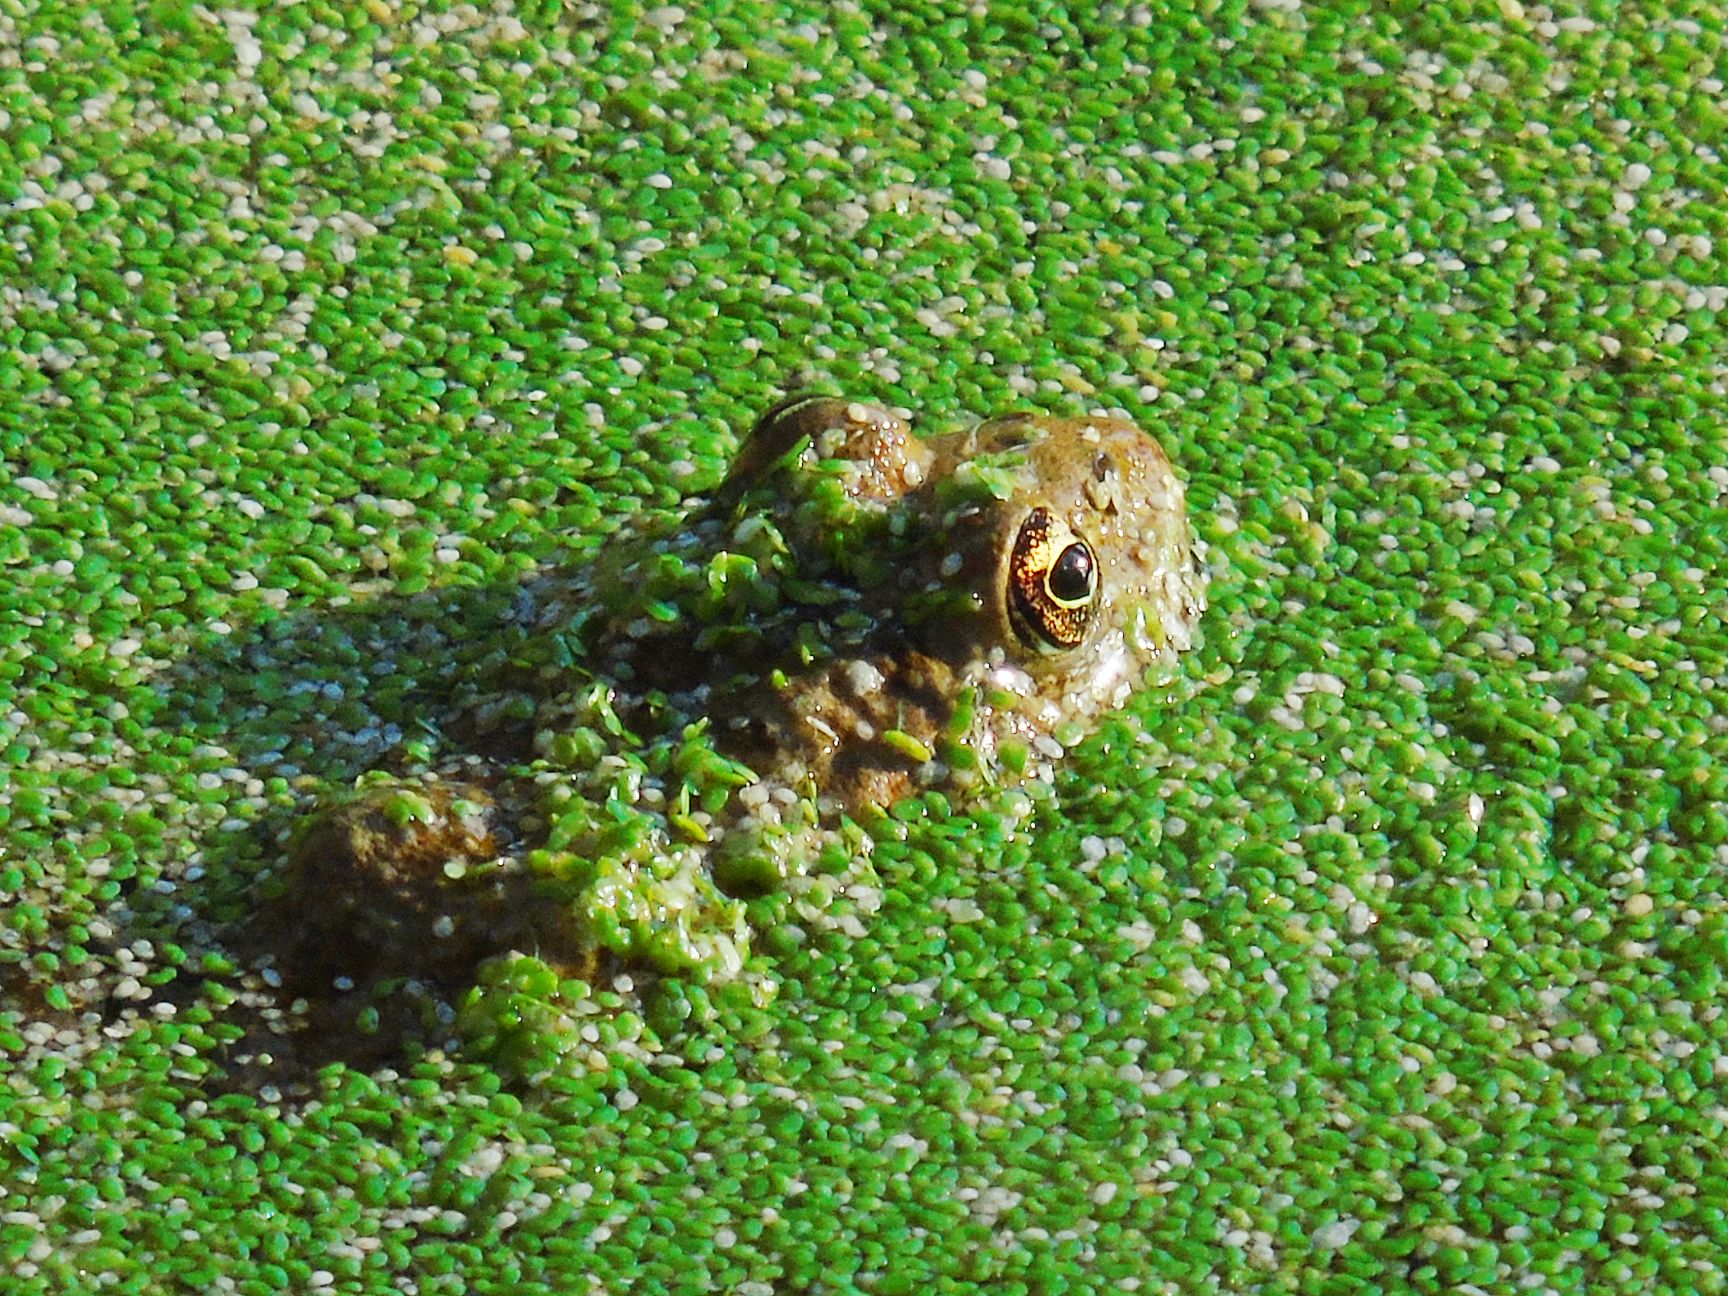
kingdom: Animalia
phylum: Chordata
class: Amphibia
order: Anura
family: Ranidae
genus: Pelophylax
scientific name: Pelophylax ridibundus
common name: Marsh frog
